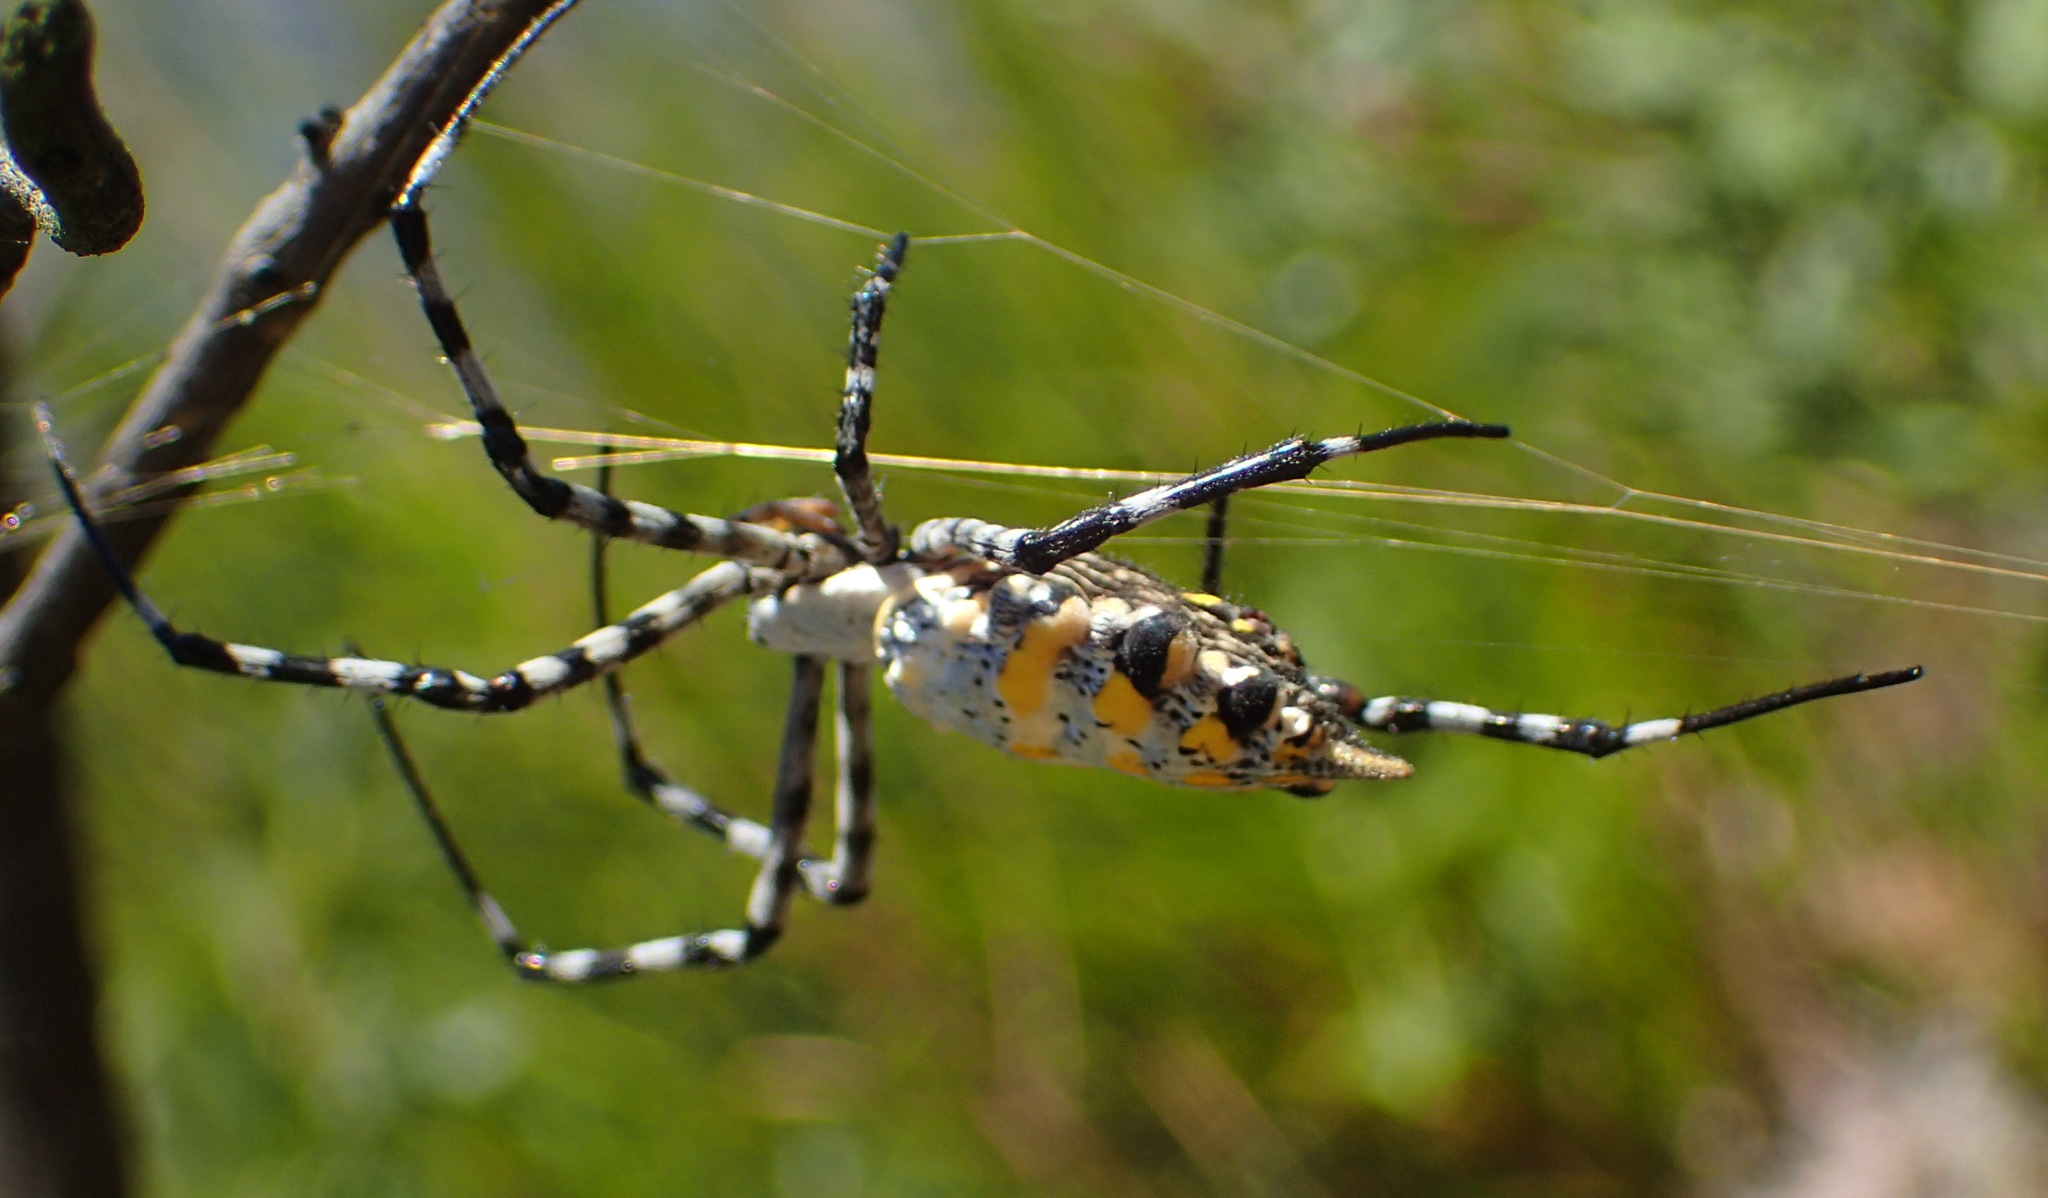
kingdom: Animalia
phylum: Arthropoda
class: Arachnida
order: Araneae
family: Araneidae
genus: Argiope
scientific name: Argiope australis
